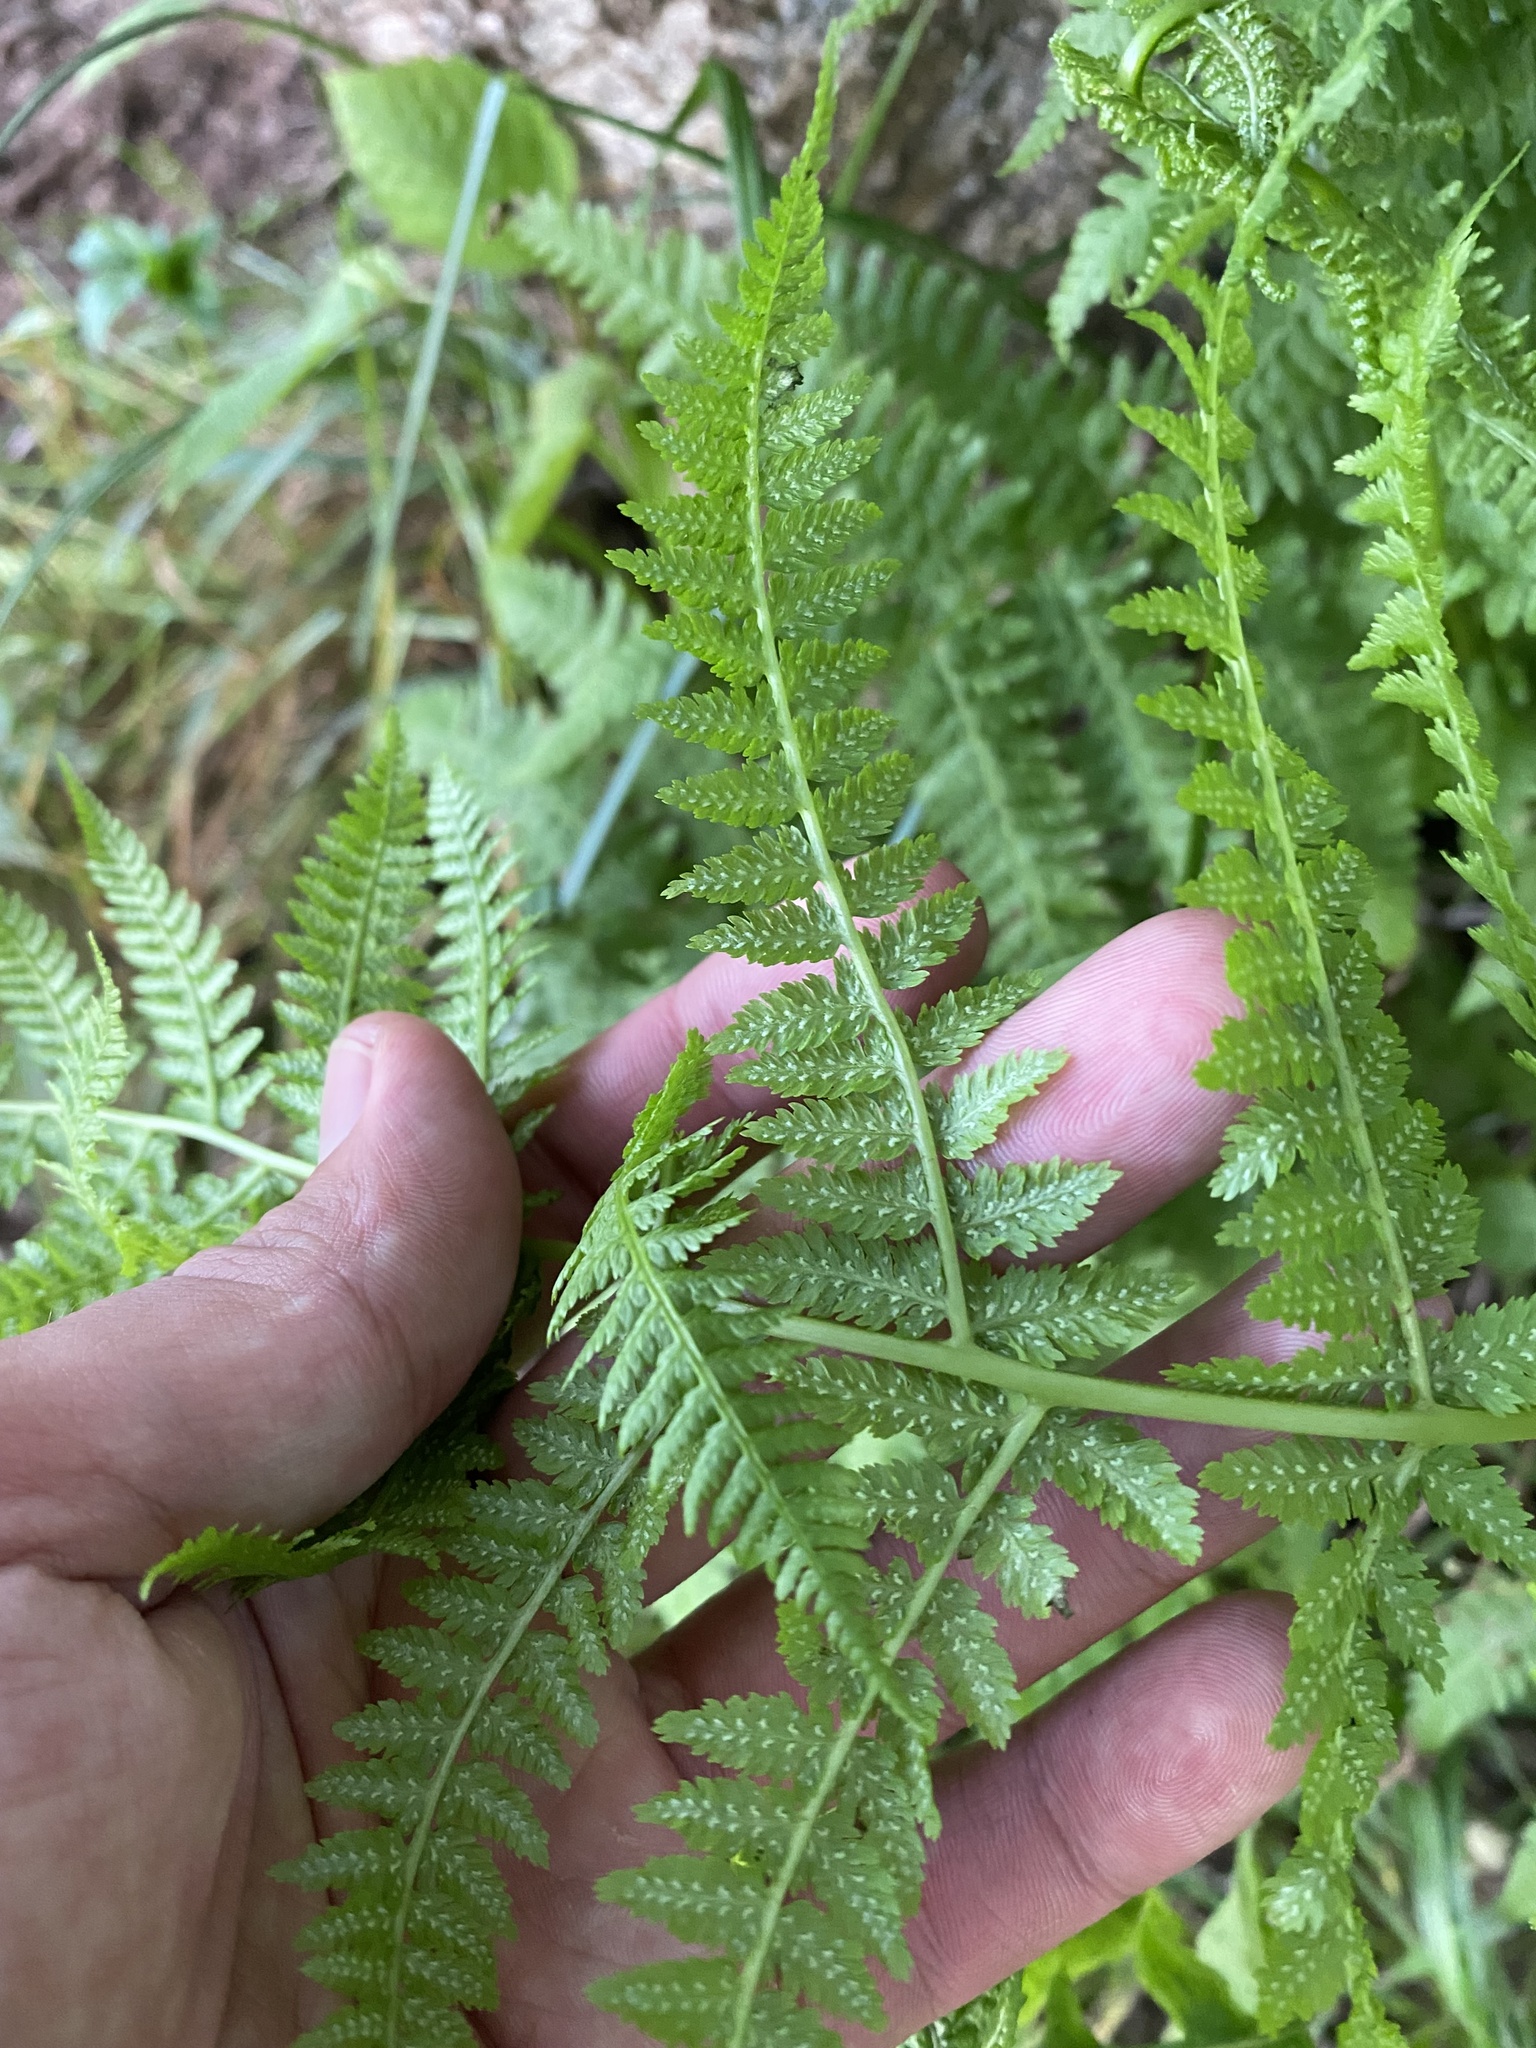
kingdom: Plantae
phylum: Tracheophyta
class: Polypodiopsida
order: Polypodiales
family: Athyriaceae
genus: Athyrium
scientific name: Athyrium filix-femina
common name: Lady fern
